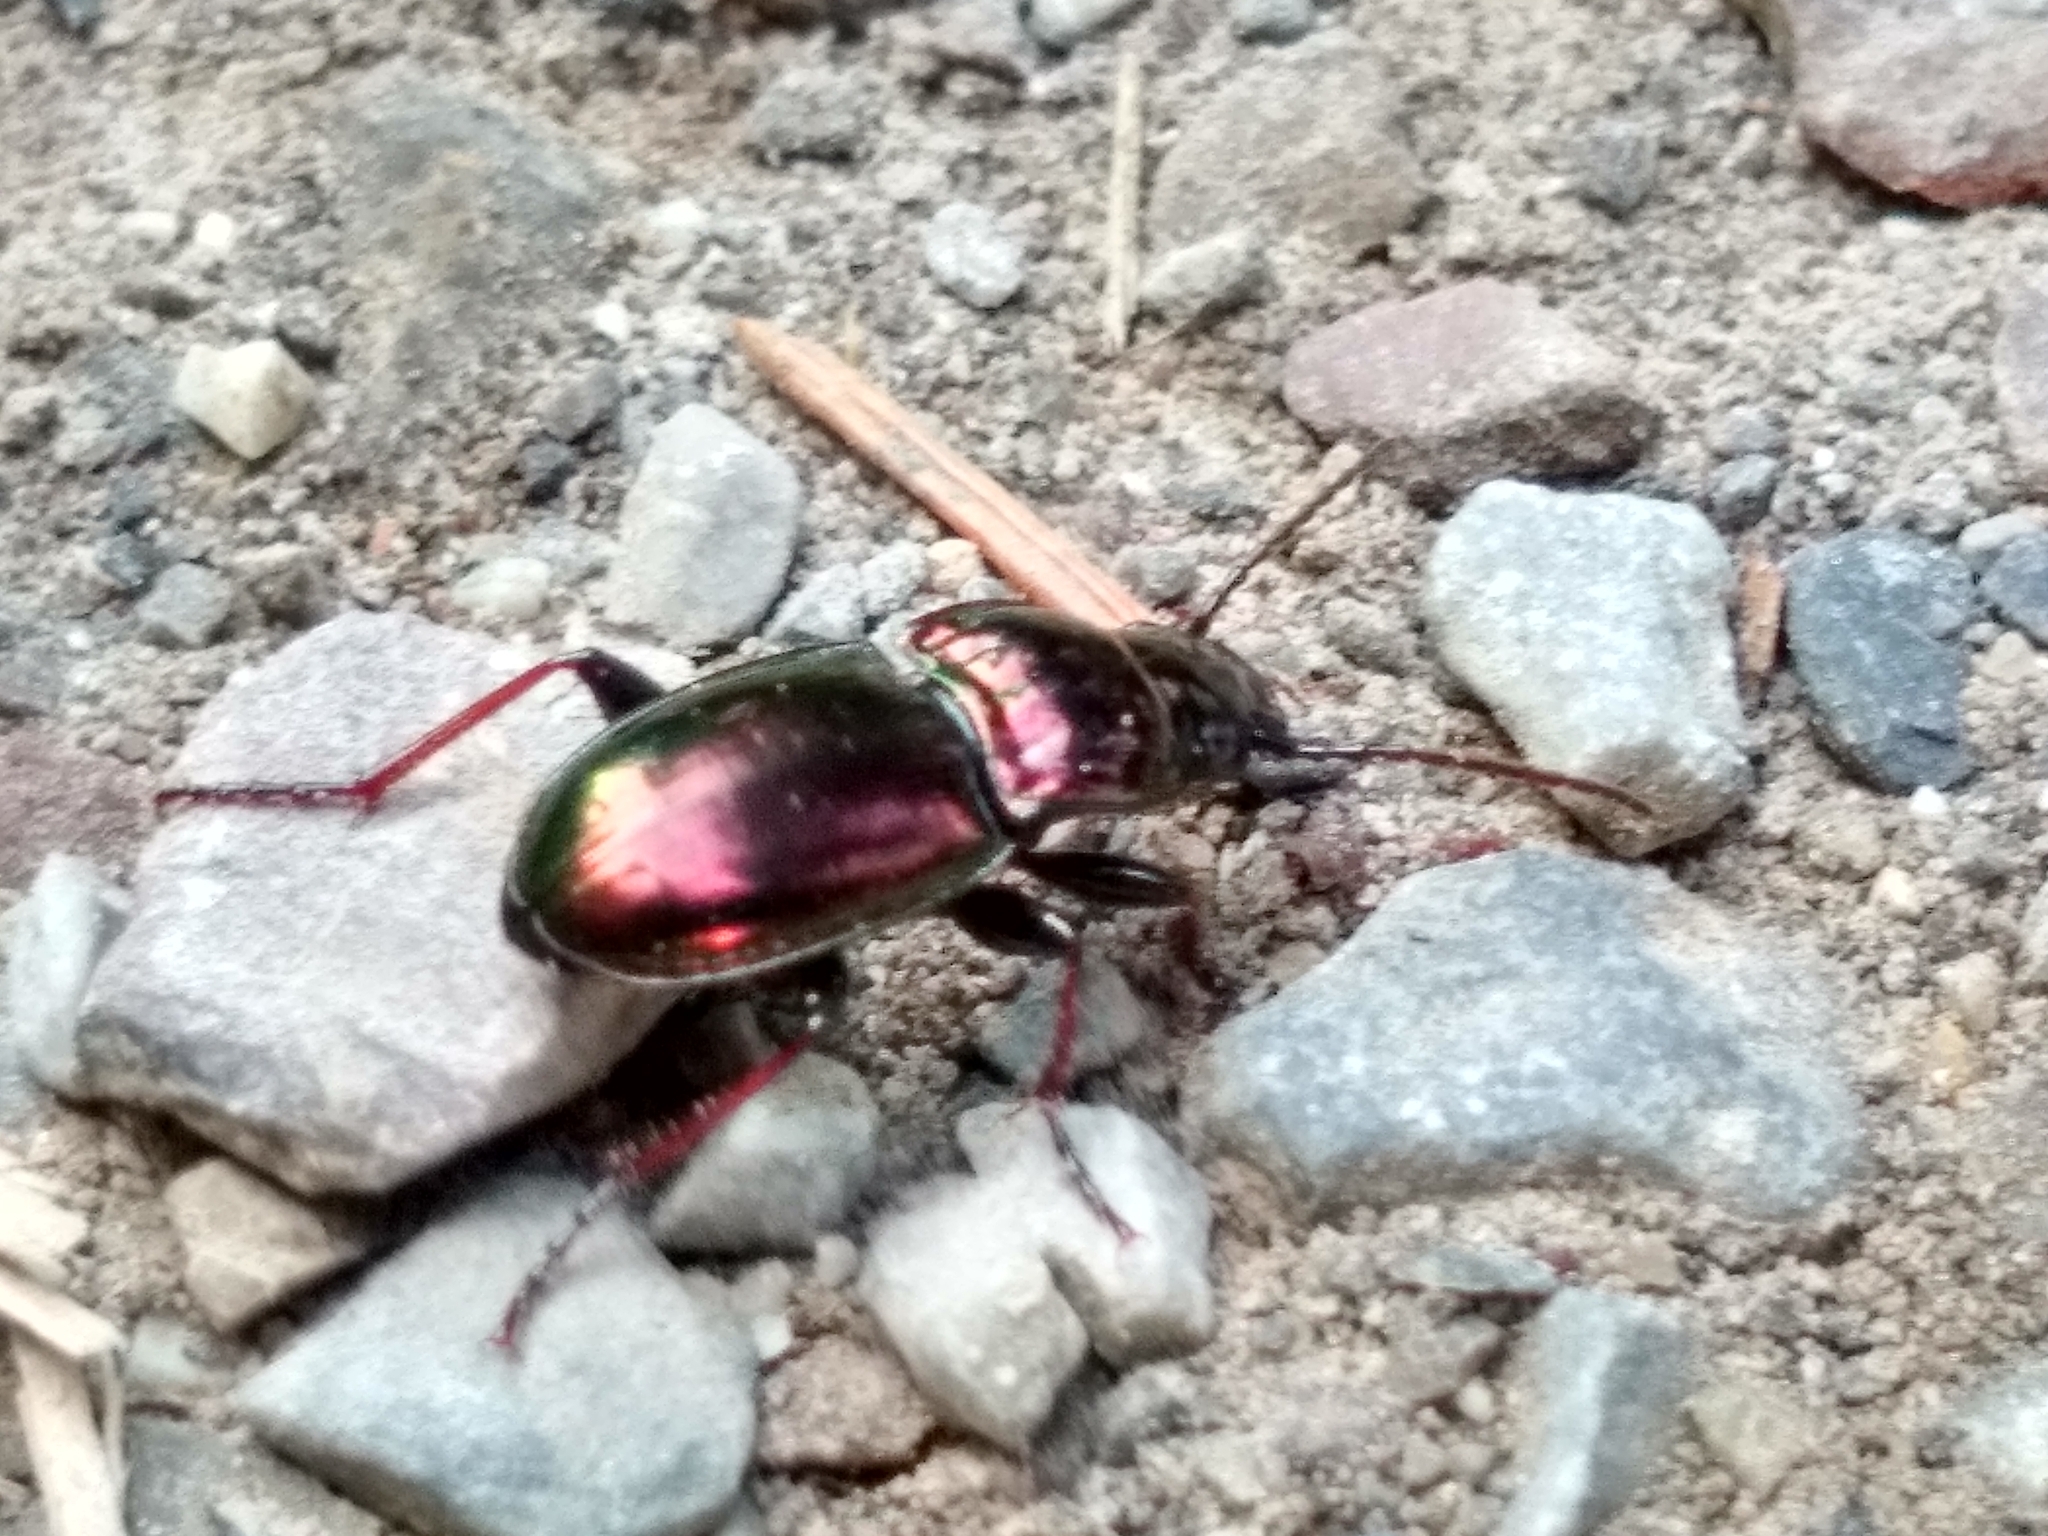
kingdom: Animalia
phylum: Arthropoda
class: Insecta
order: Coleoptera
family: Carabidae
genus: Pterostichus
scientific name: Pterostichus burmeisteri
